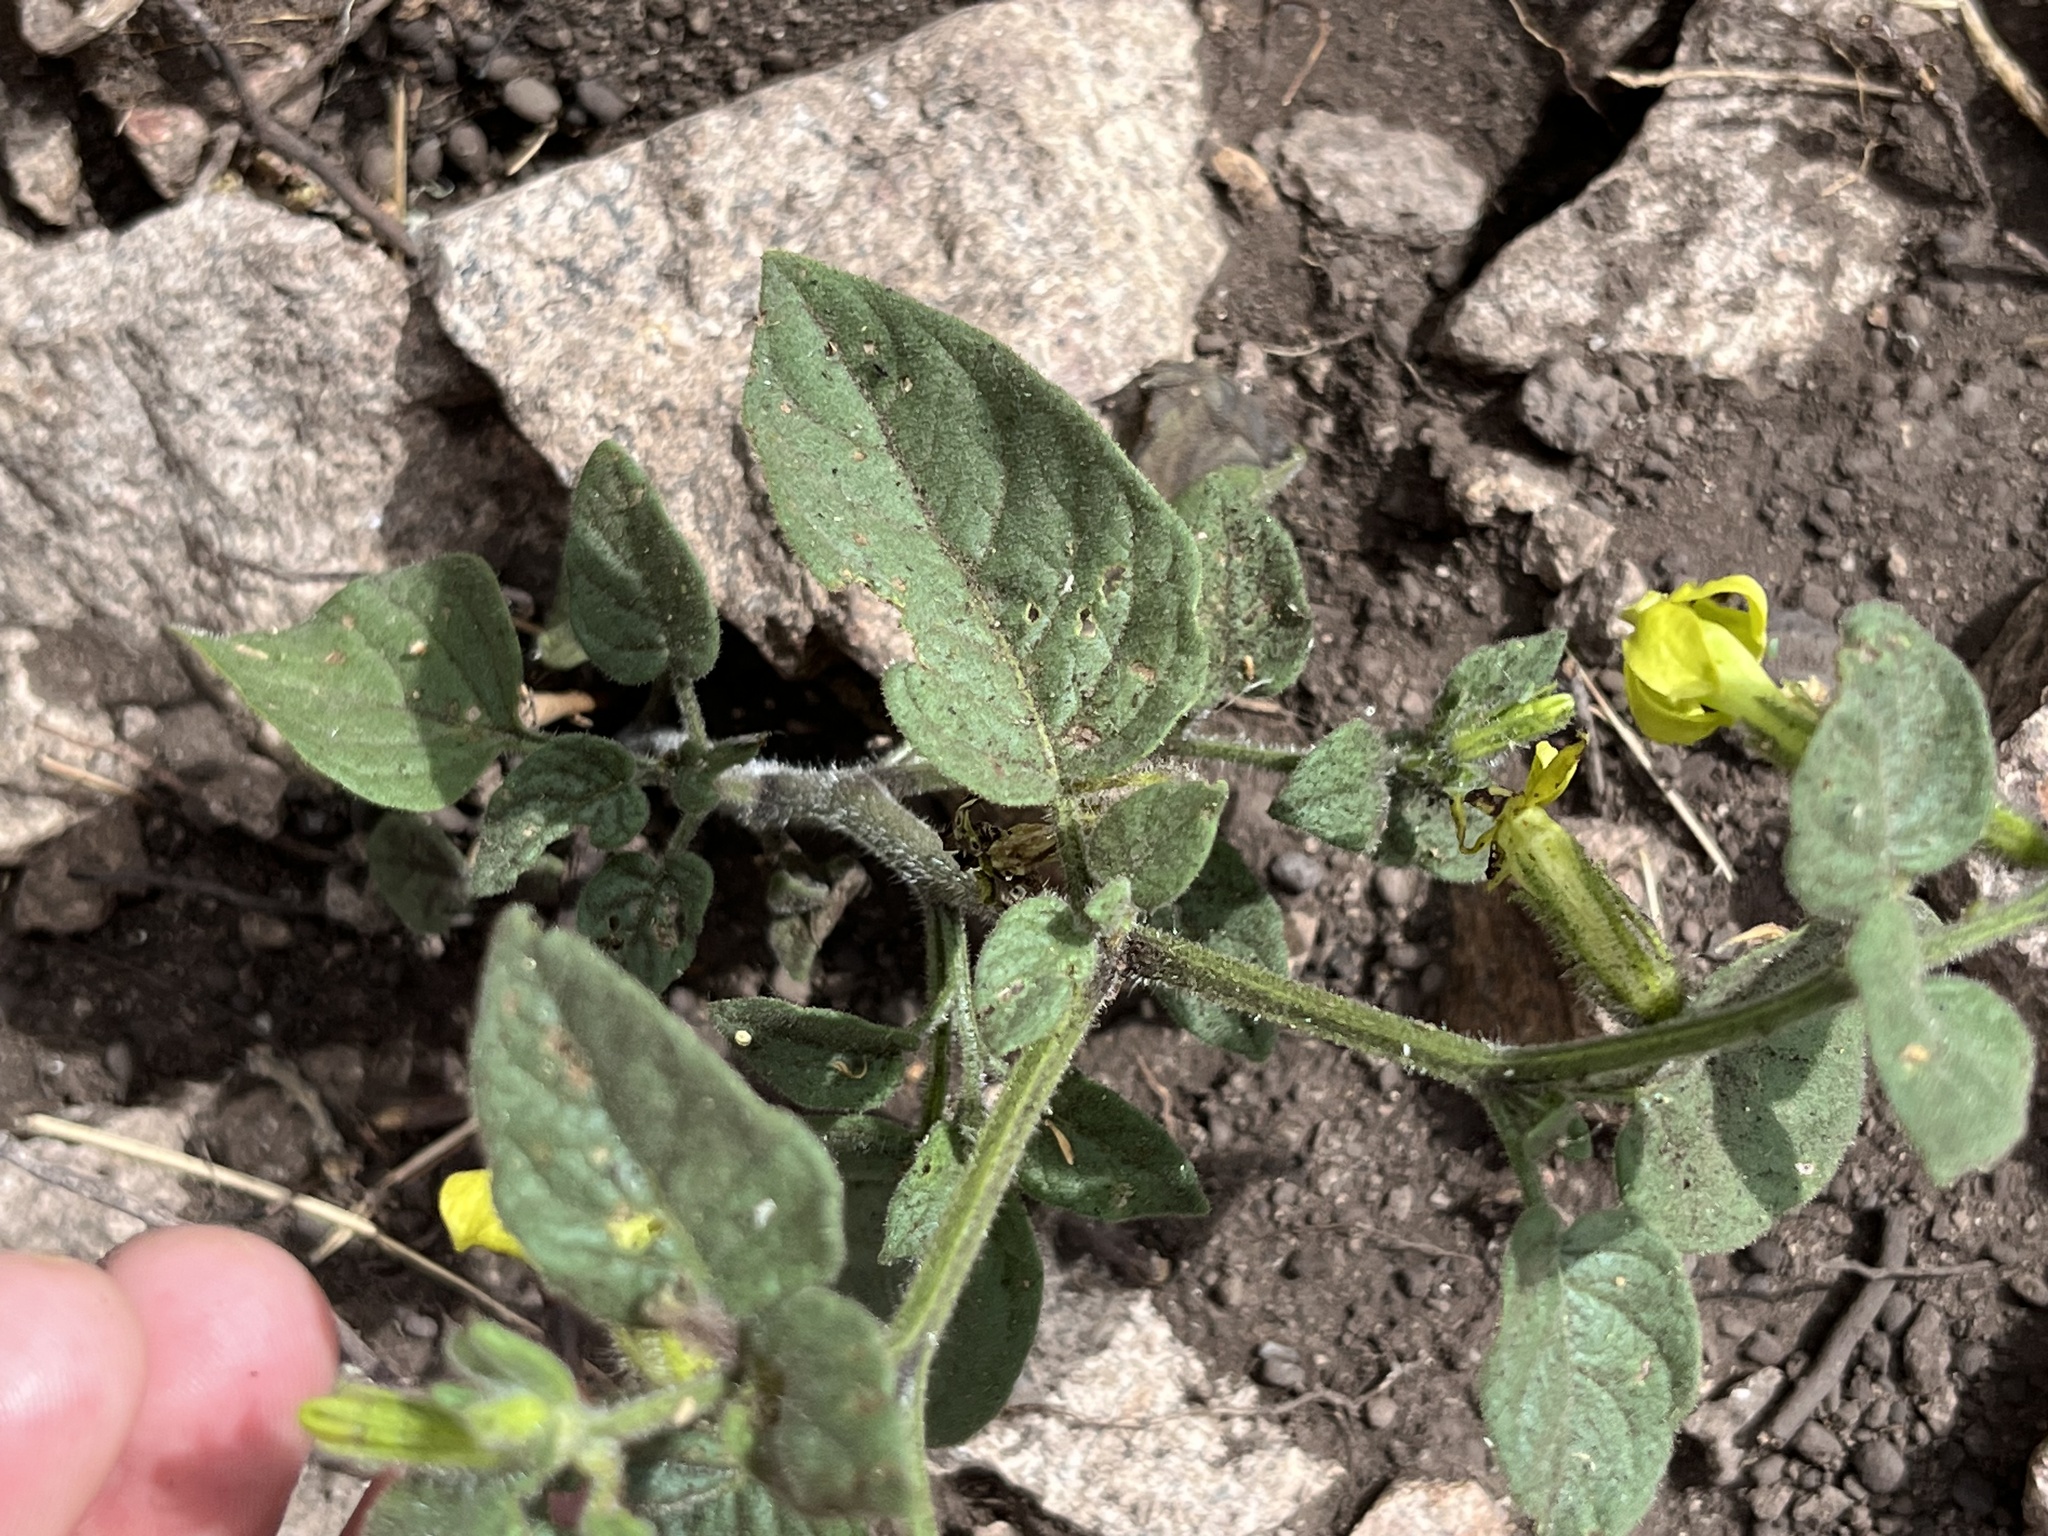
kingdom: Plantae
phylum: Tracheophyta
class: Magnoliopsida
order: Solanales
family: Solanaceae
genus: Nectouxia
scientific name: Nectouxia formosa
